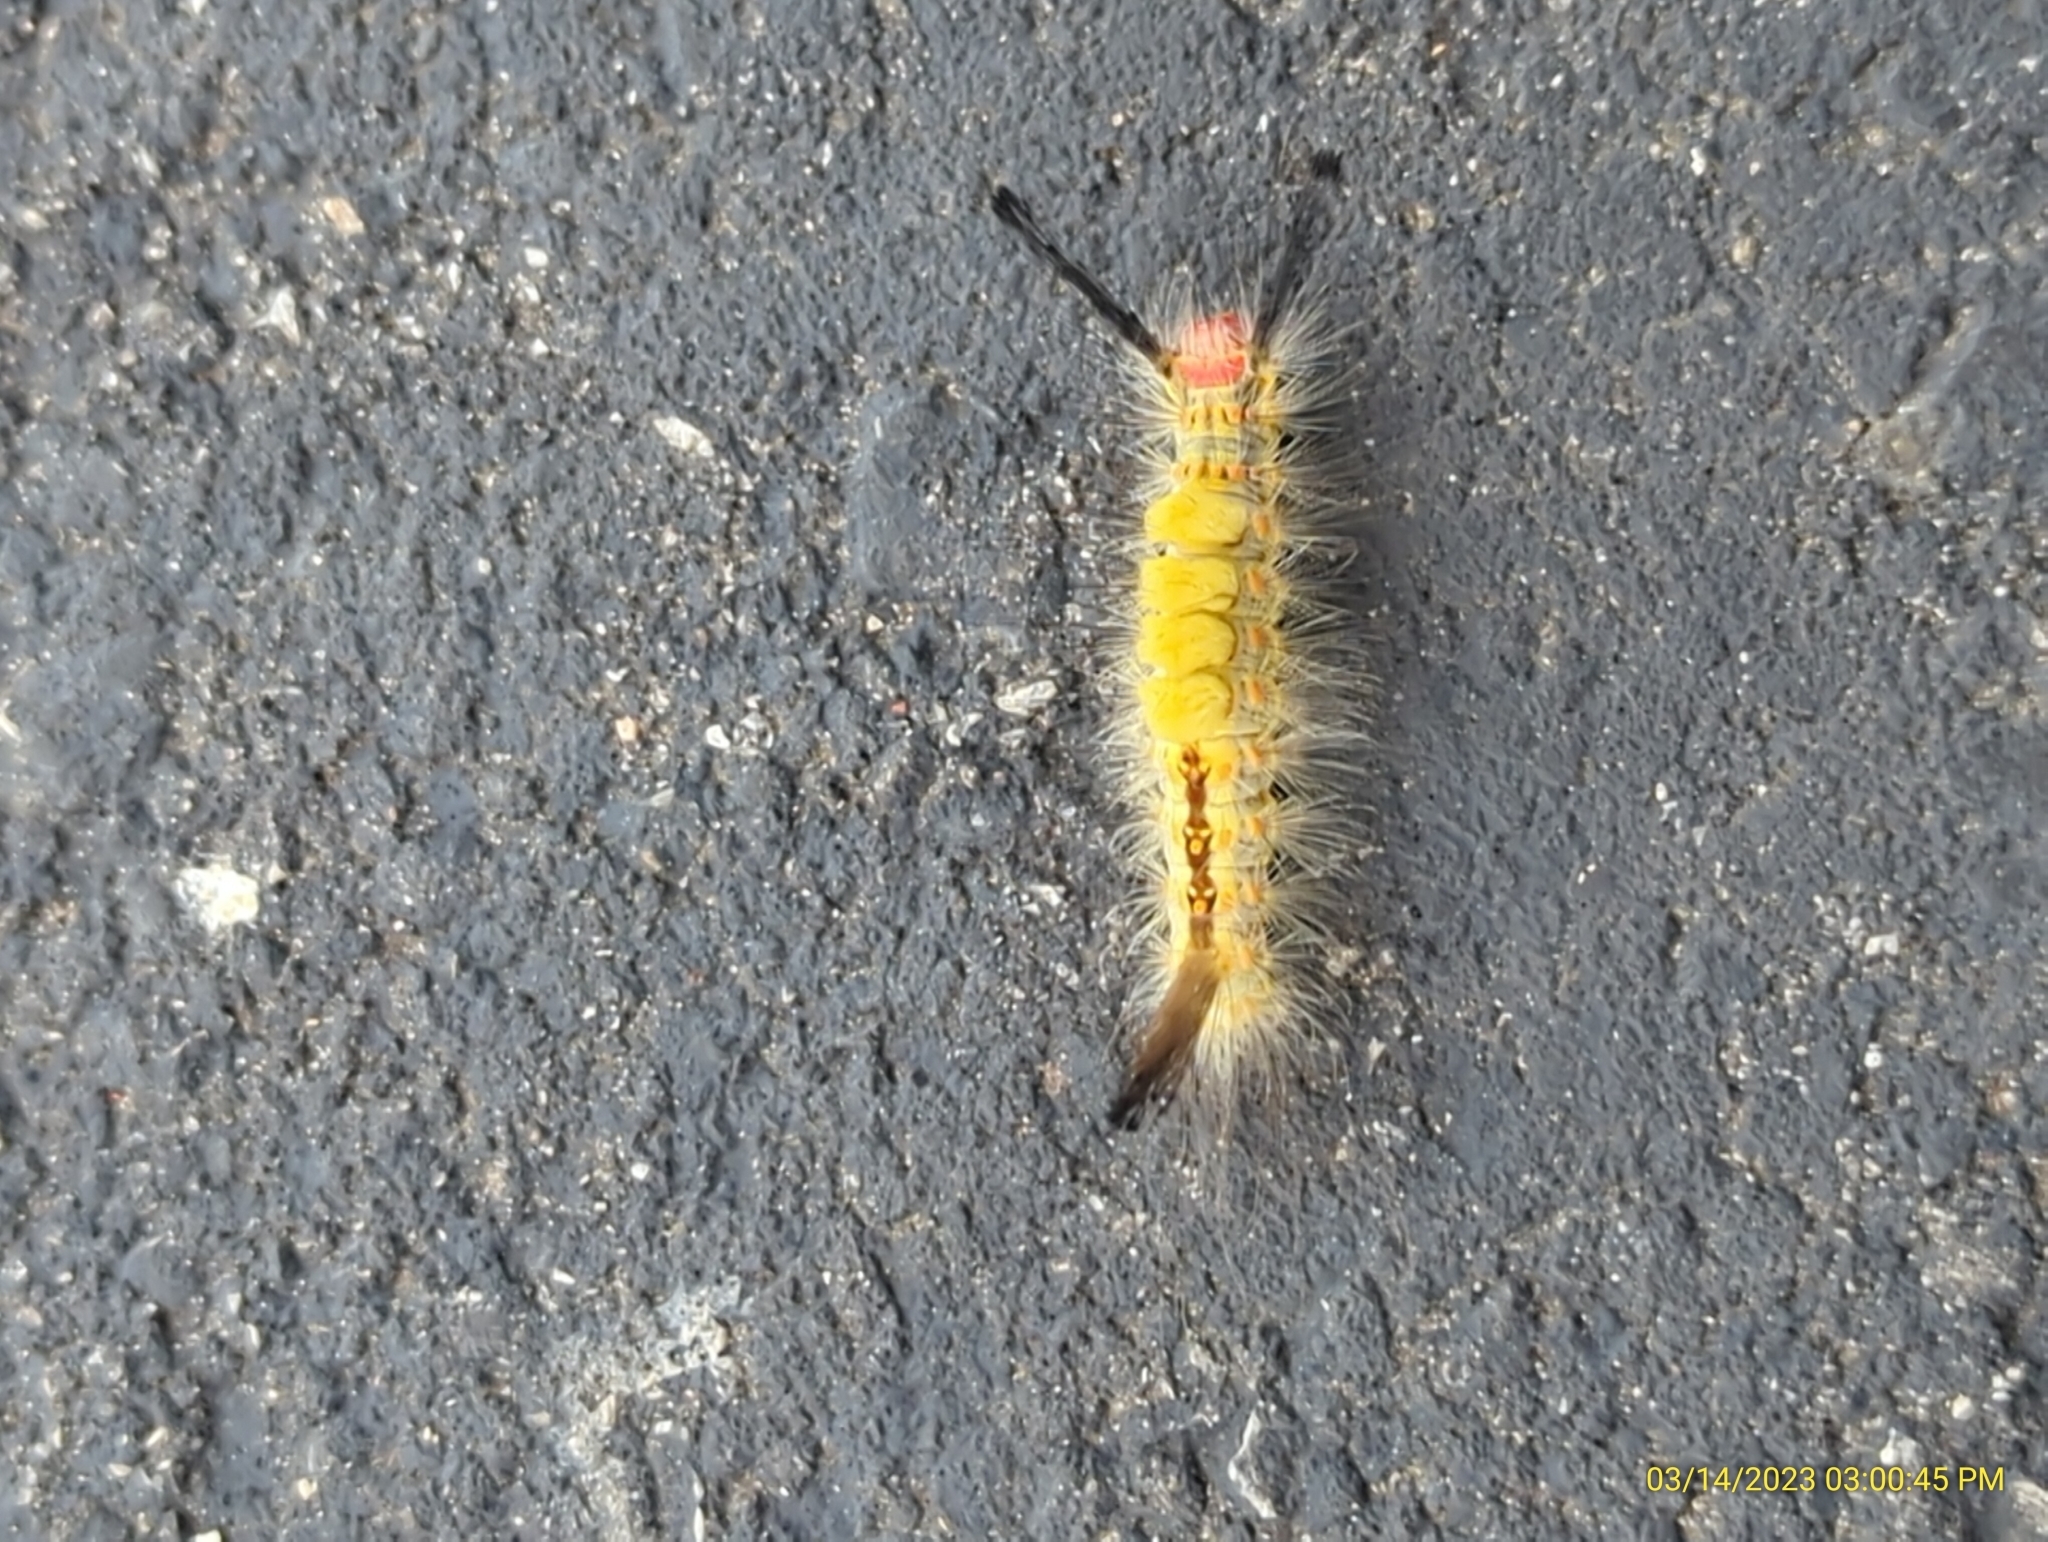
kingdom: Animalia
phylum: Arthropoda
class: Insecta
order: Lepidoptera
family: Erebidae
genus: Orgyia
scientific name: Orgyia detrita
